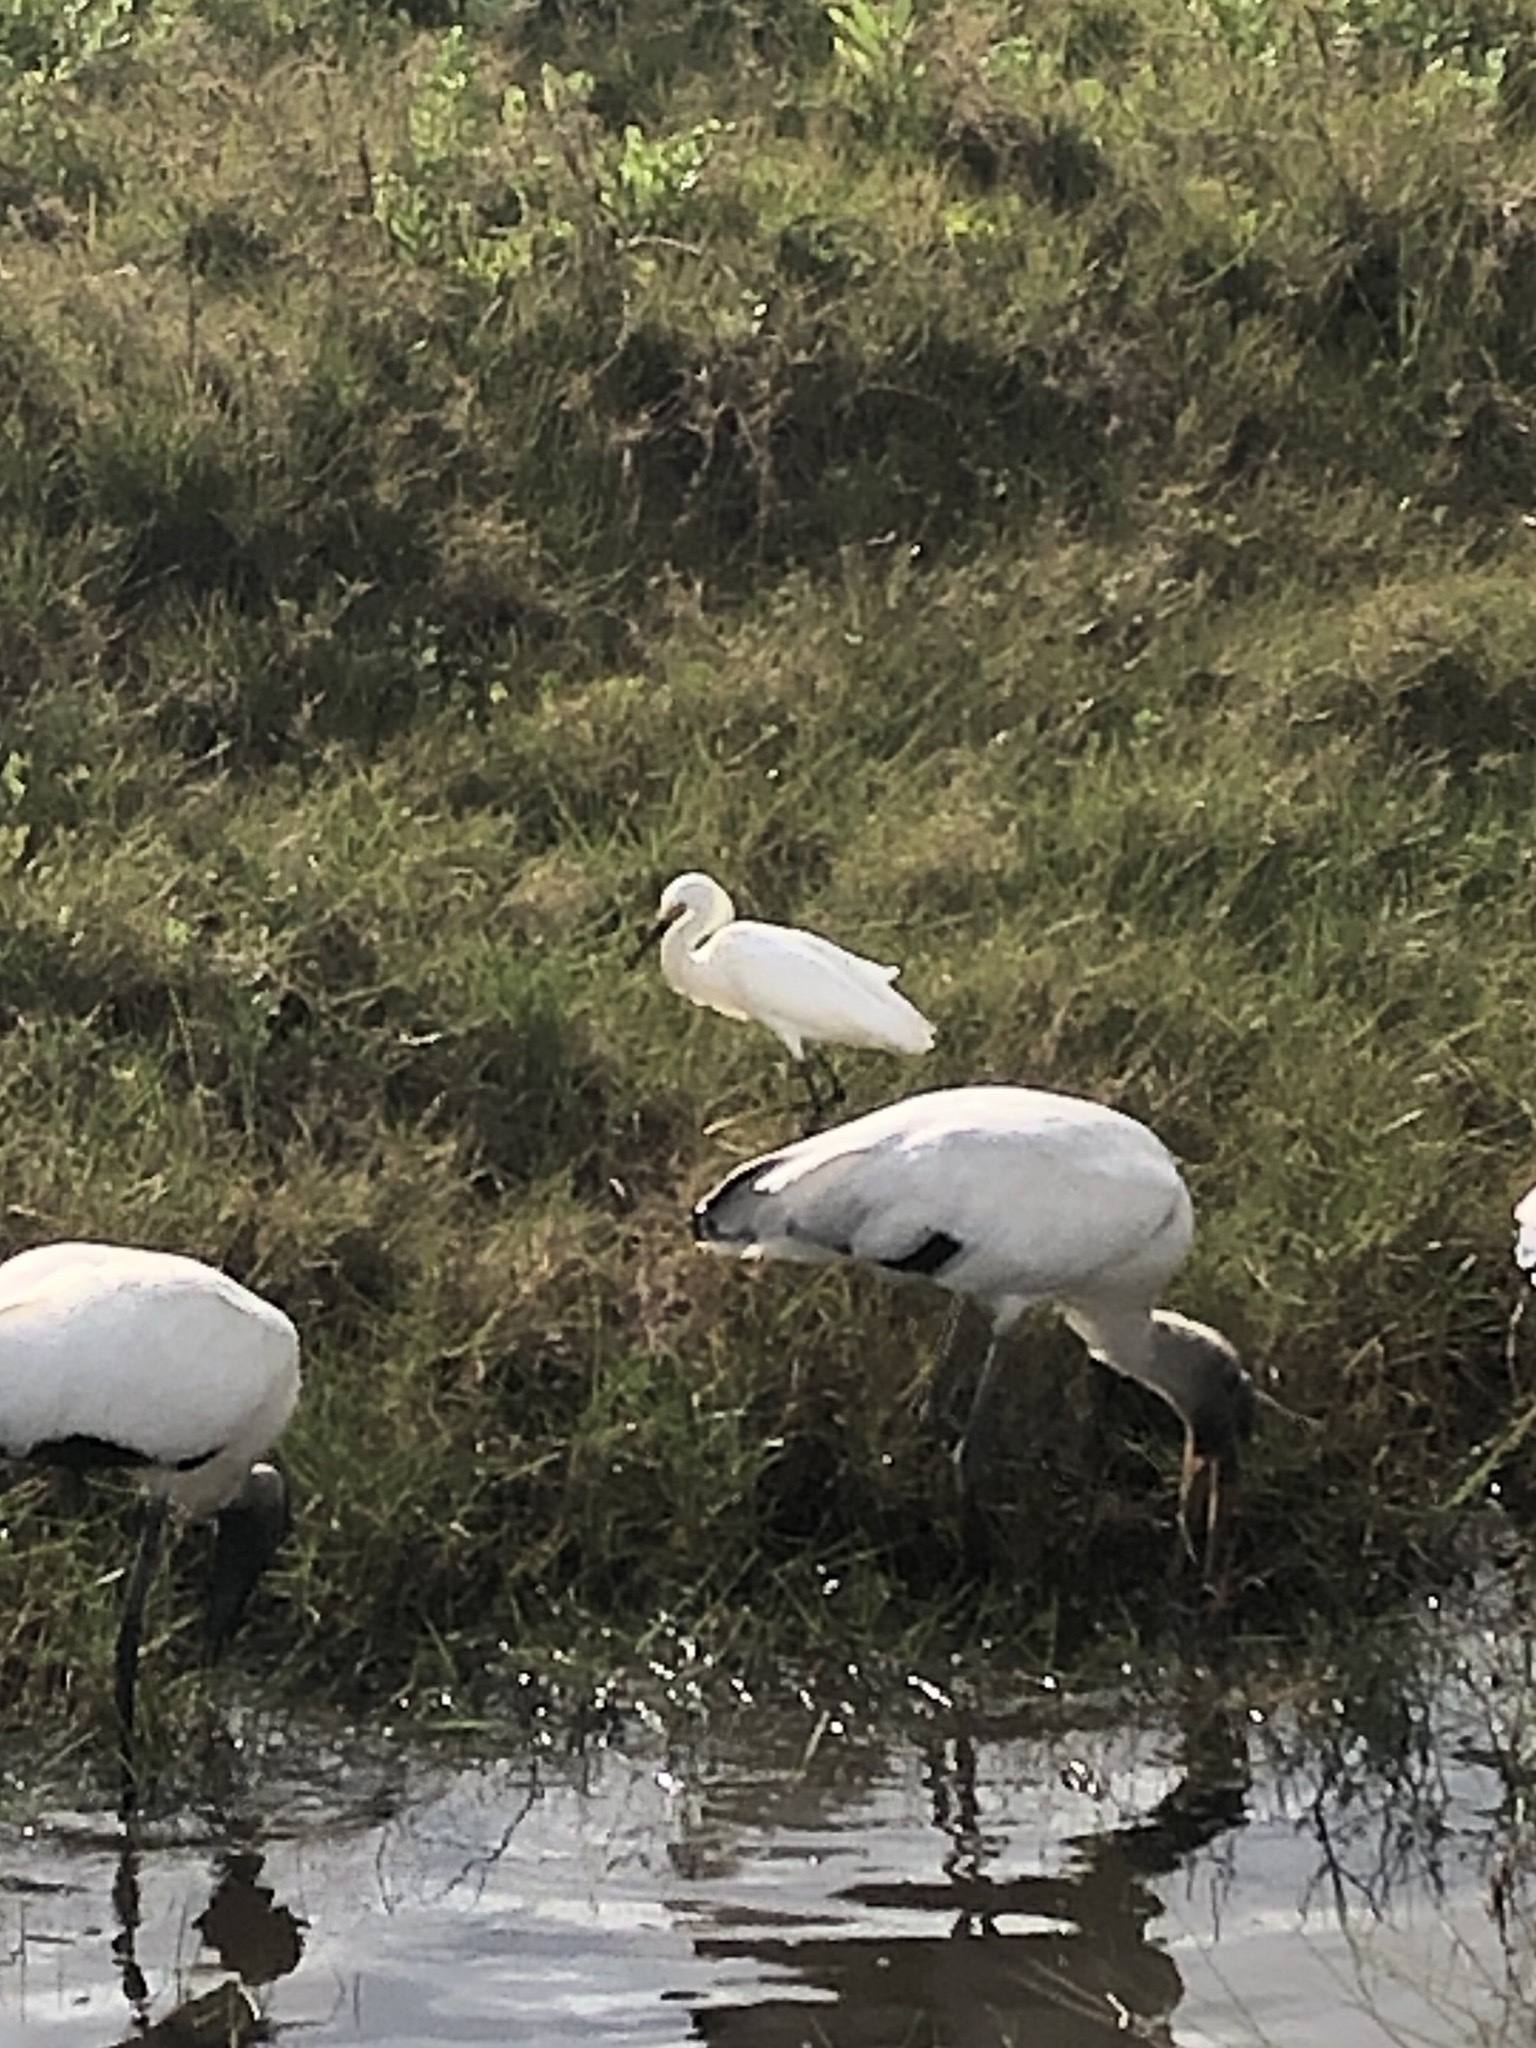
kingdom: Animalia
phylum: Chordata
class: Aves
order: Pelecaniformes
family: Ardeidae
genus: Egretta
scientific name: Egretta thula
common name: Snowy egret
